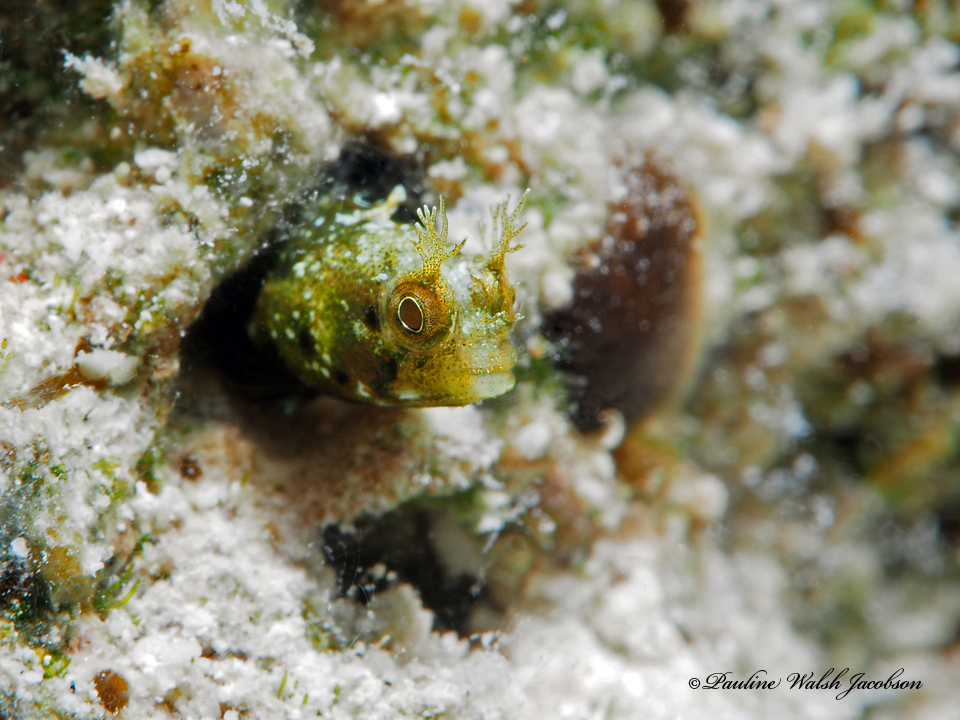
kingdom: Animalia
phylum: Chordata
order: Perciformes
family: Chaenopsidae
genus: Acanthemblemaria
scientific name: Acanthemblemaria aspera
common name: Roughhead blenny
